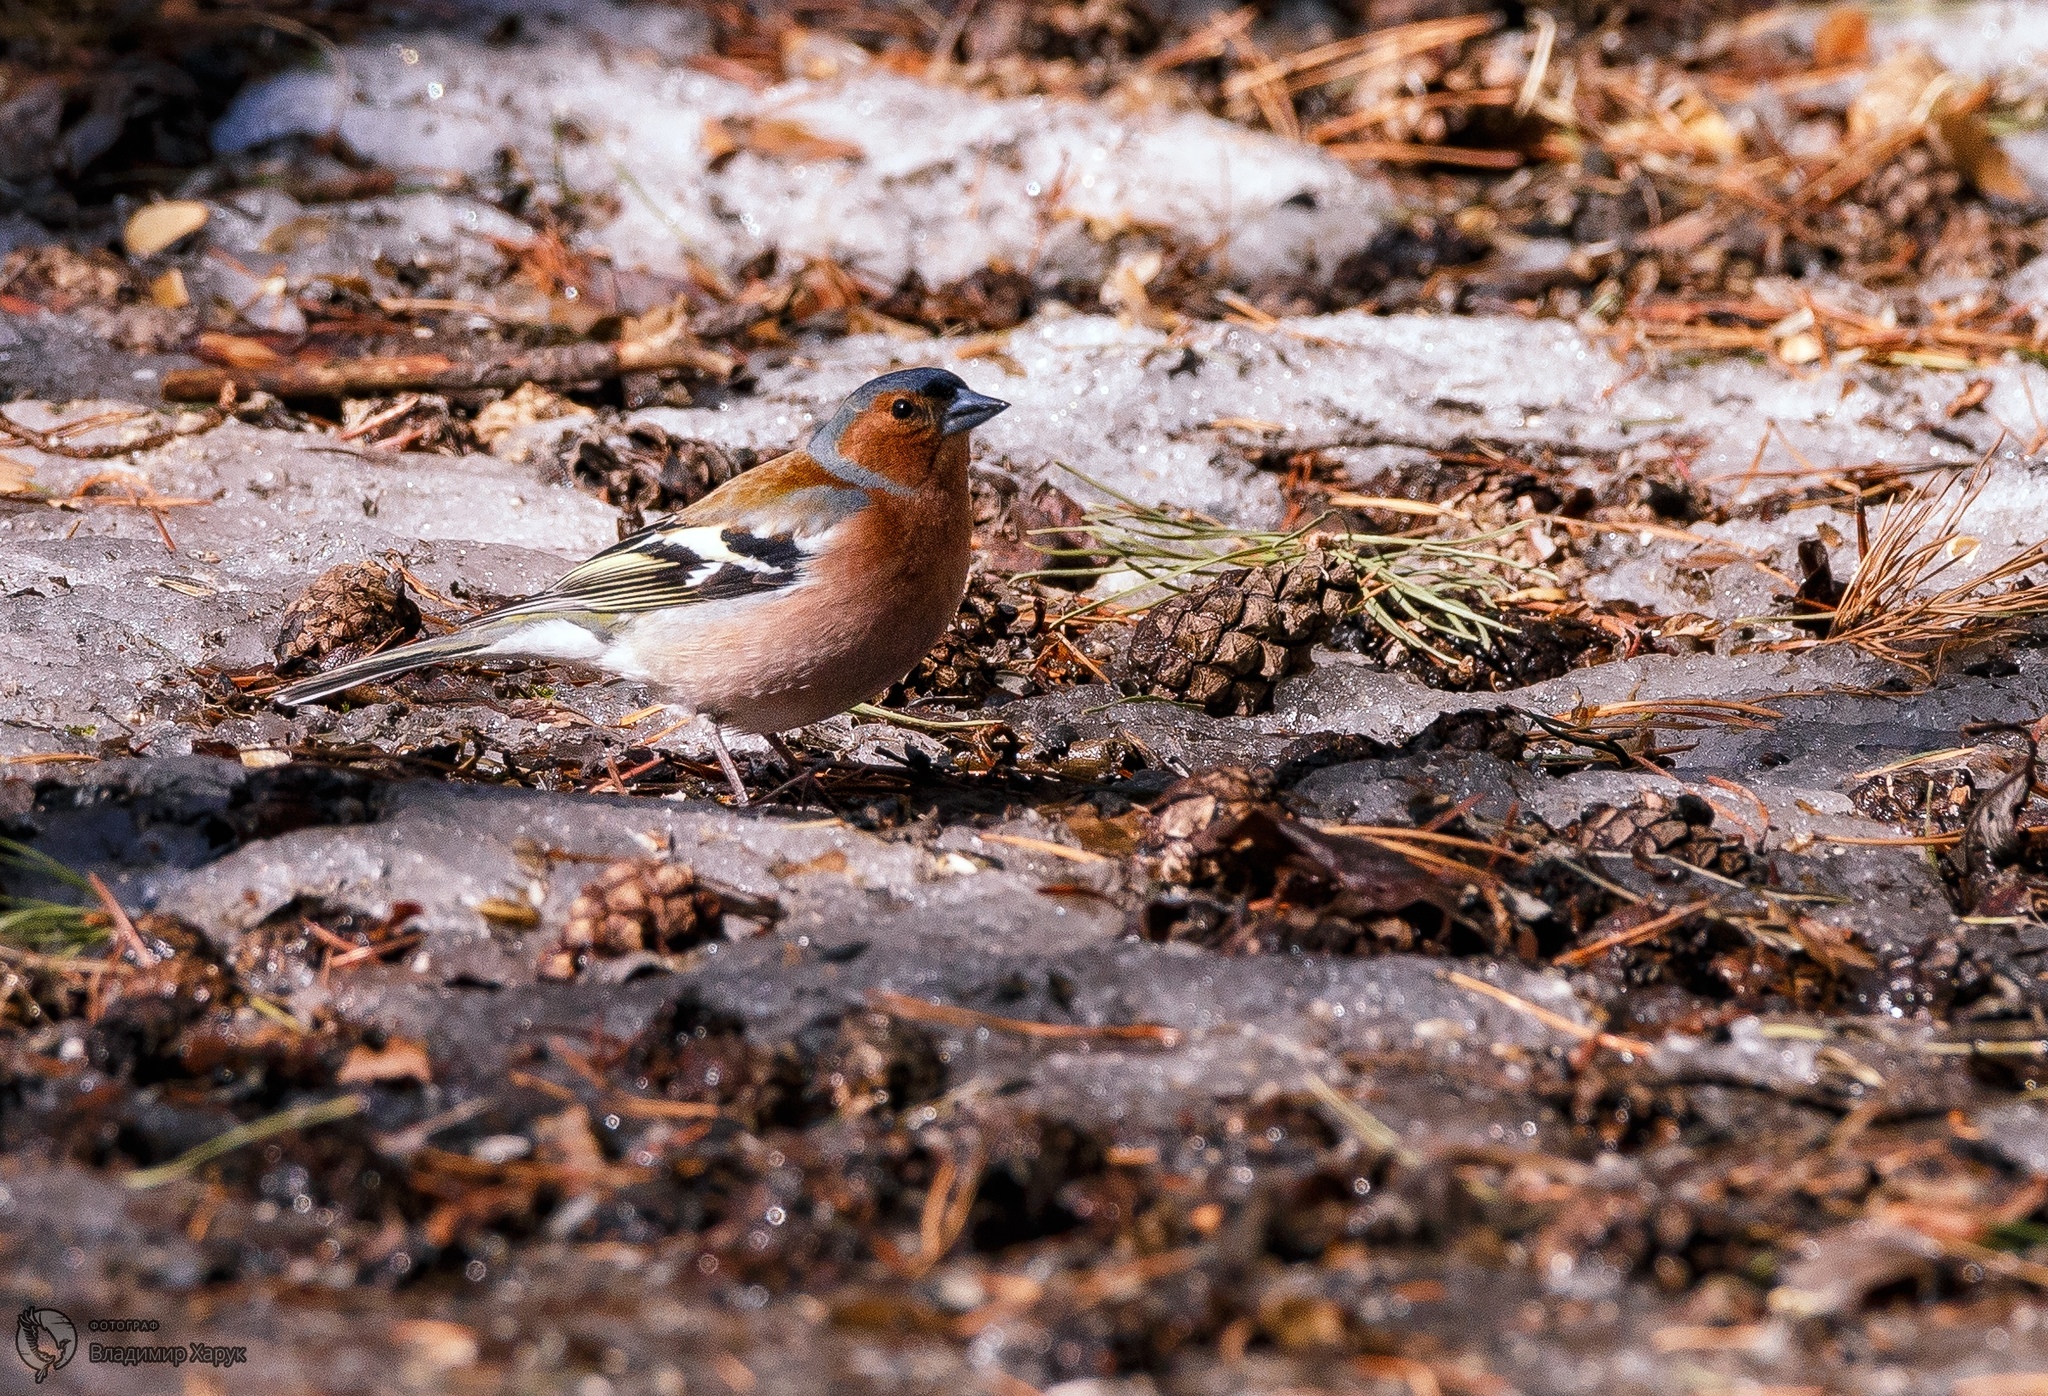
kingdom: Animalia
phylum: Chordata
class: Aves
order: Passeriformes
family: Fringillidae
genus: Fringilla
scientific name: Fringilla coelebs
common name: Common chaffinch
